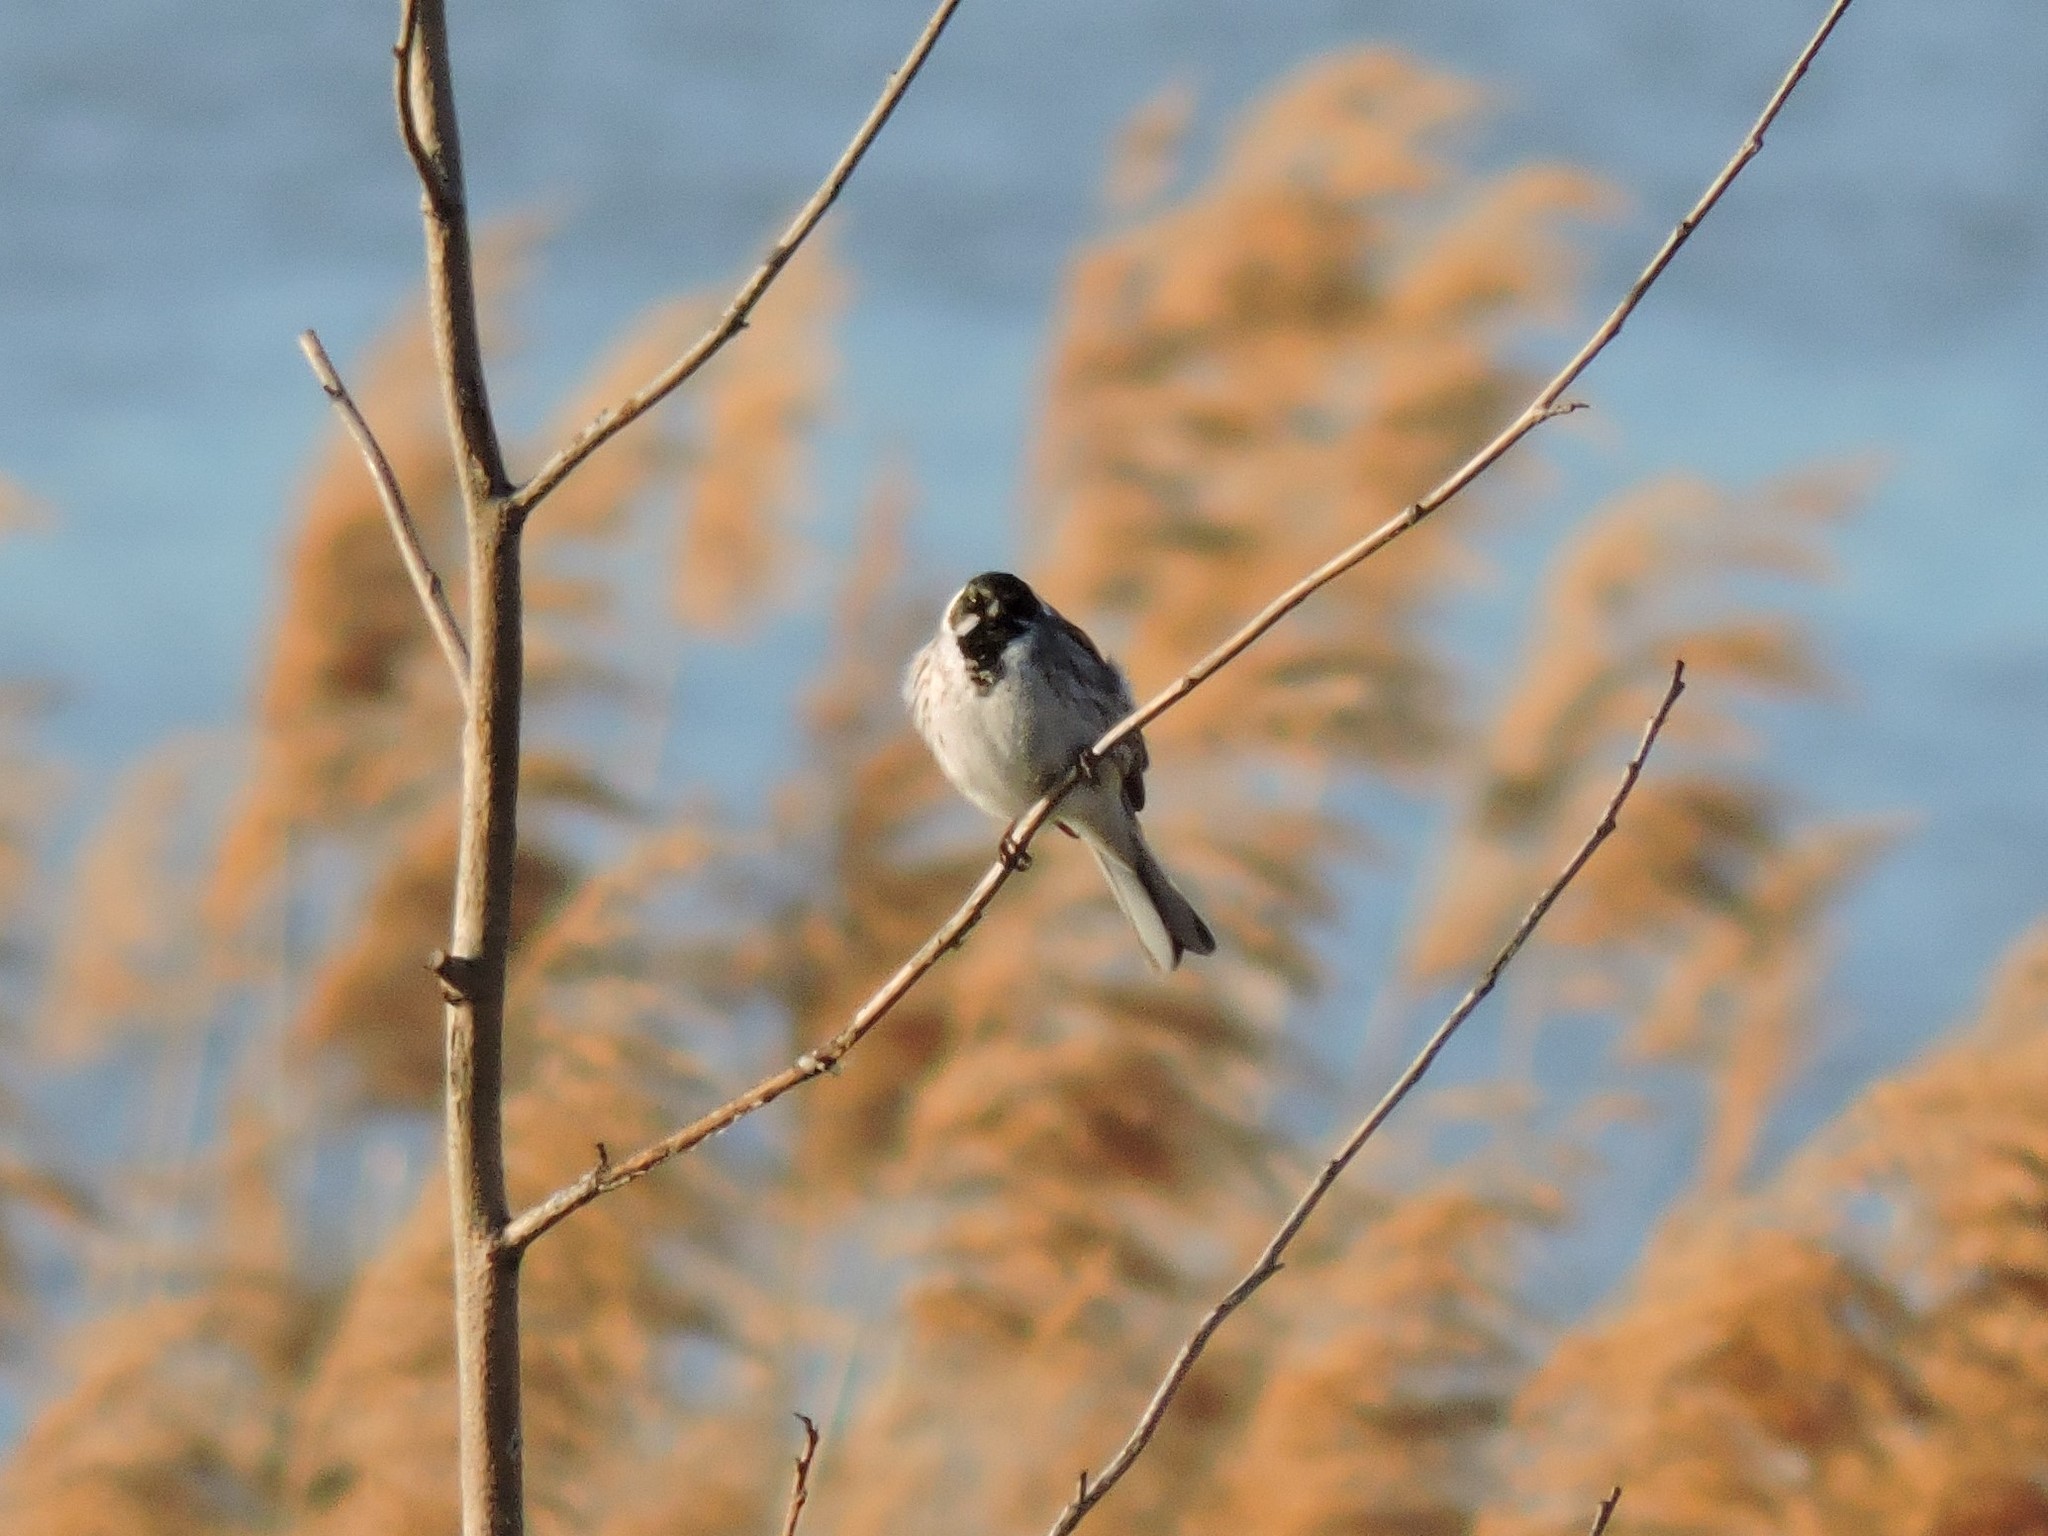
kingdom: Animalia
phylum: Chordata
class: Aves
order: Passeriformes
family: Emberizidae
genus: Emberiza
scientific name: Emberiza schoeniclus
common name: Reed bunting
